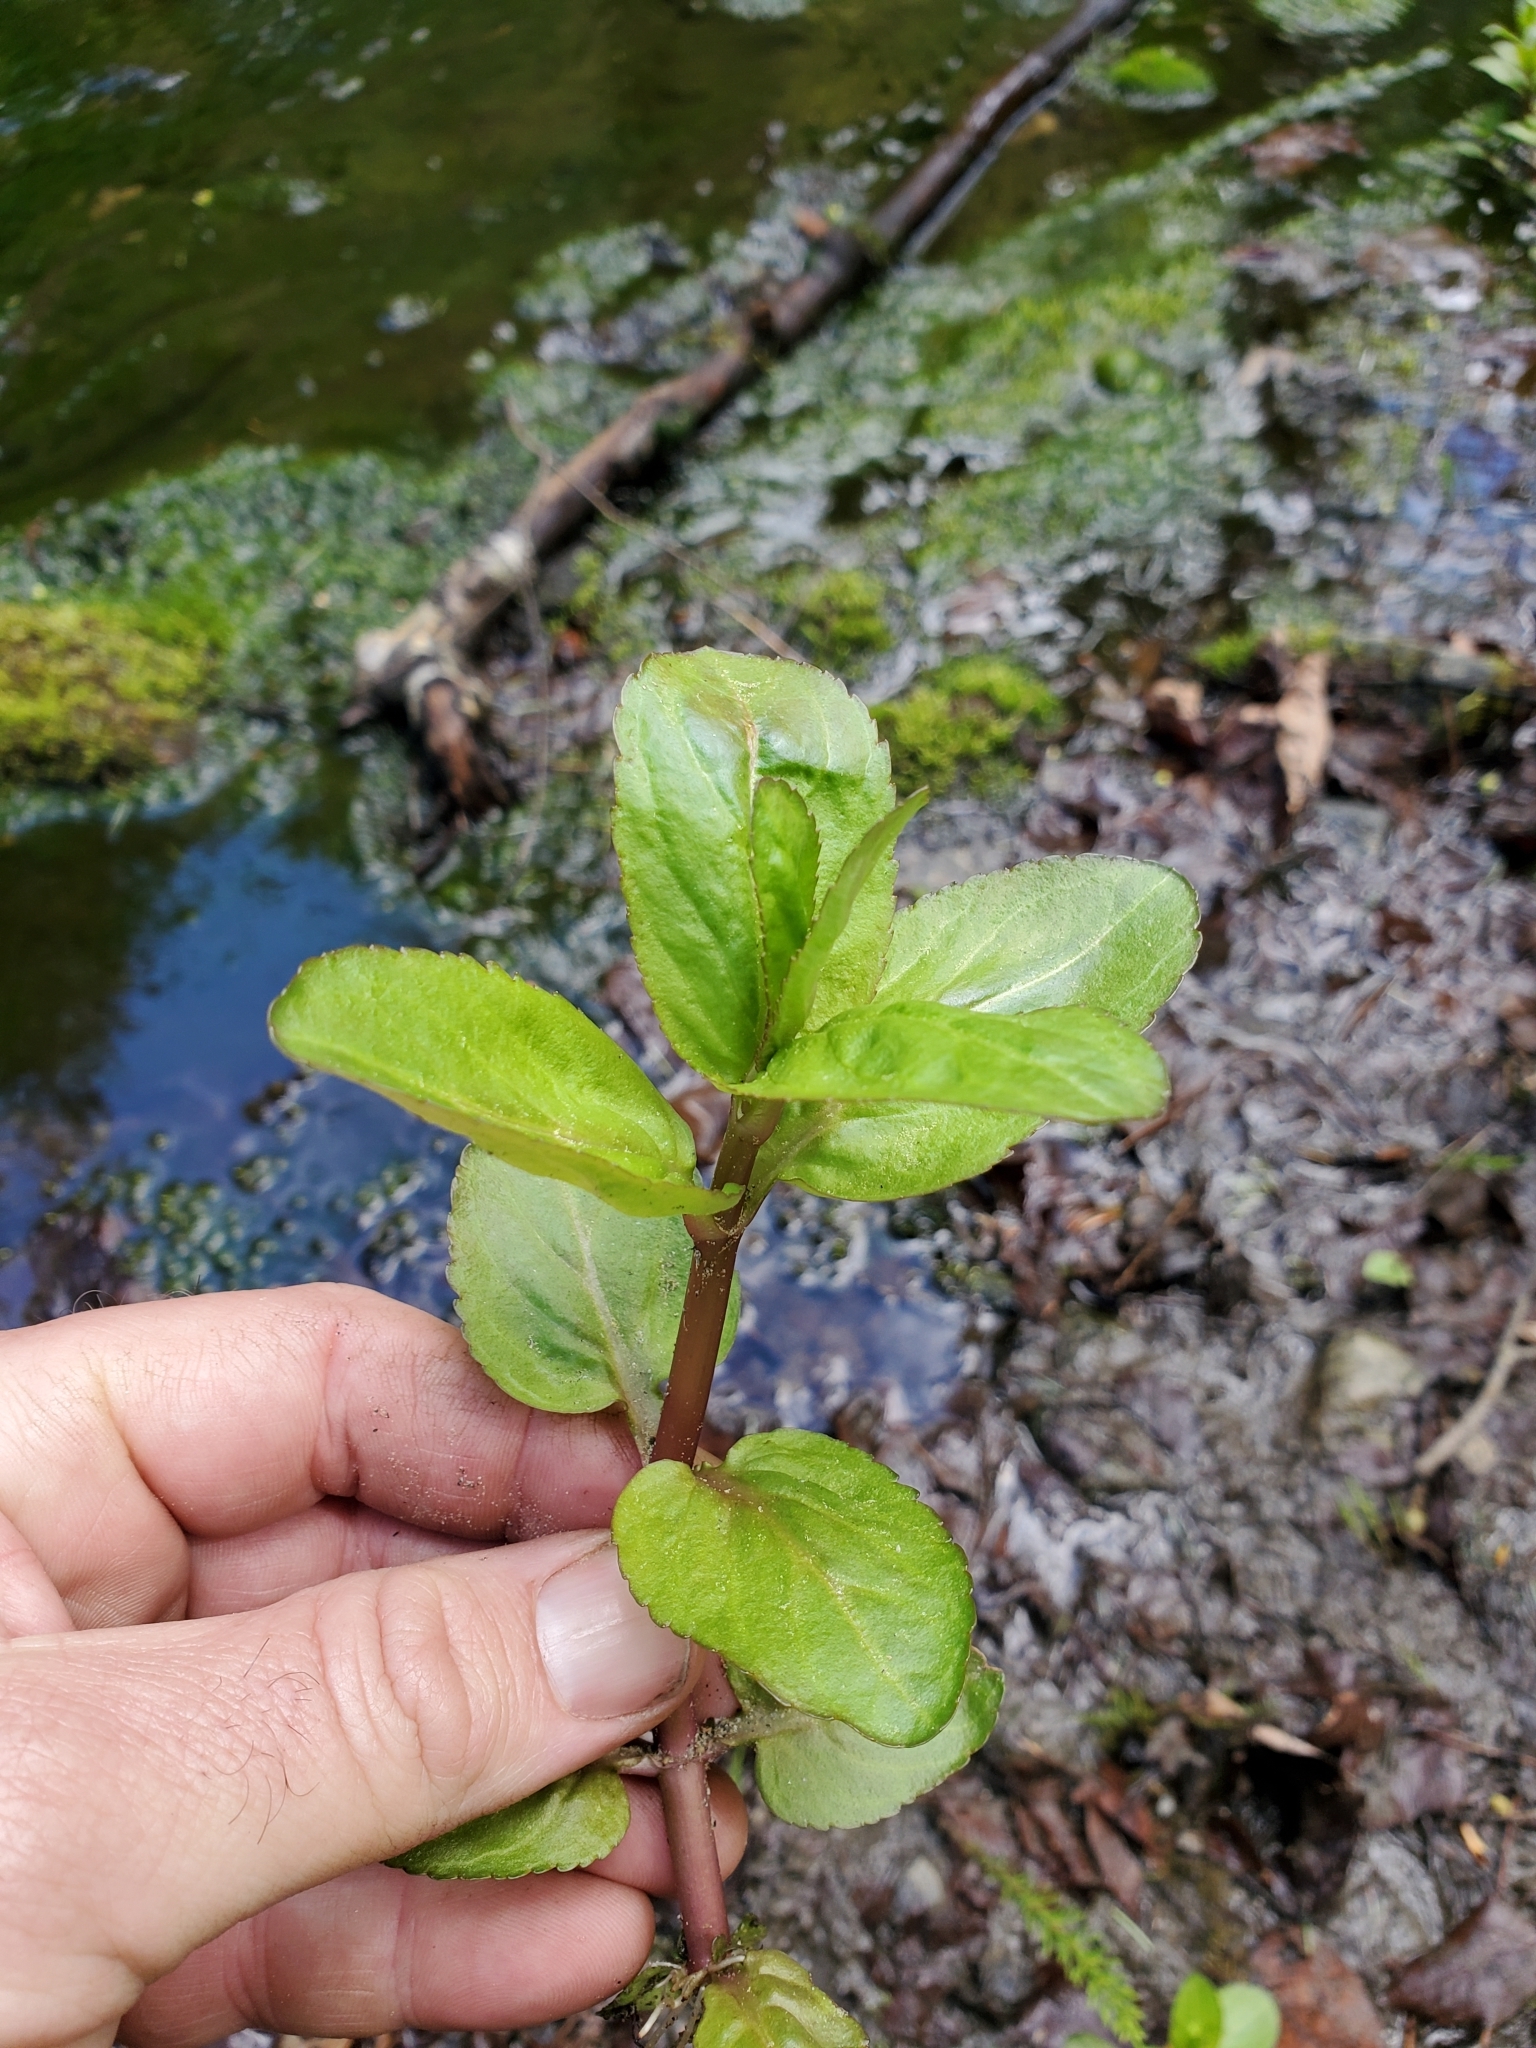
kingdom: Plantae
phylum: Tracheophyta
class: Magnoliopsida
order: Lamiales
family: Plantaginaceae
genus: Veronica
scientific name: Veronica americana
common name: American brooklime
